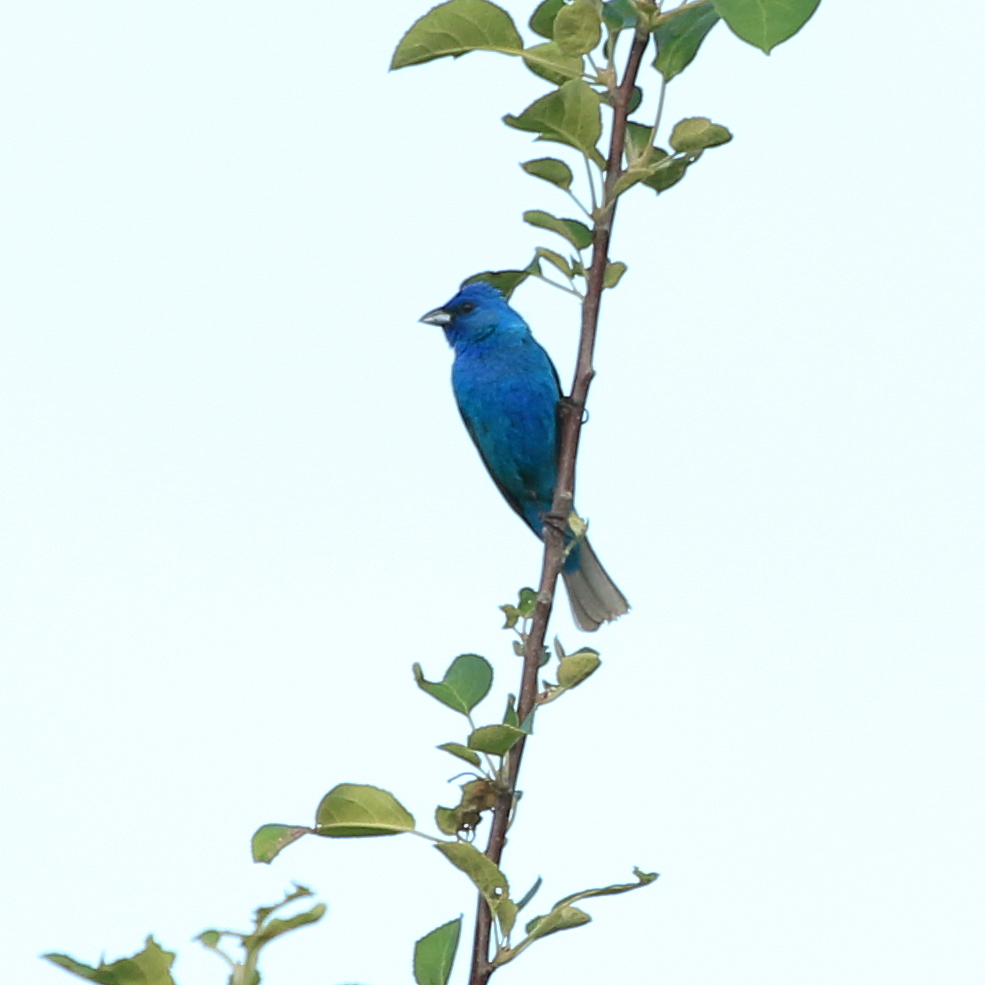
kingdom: Animalia
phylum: Chordata
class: Aves
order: Passeriformes
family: Cardinalidae
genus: Passerina
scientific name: Passerina cyanea
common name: Indigo bunting
